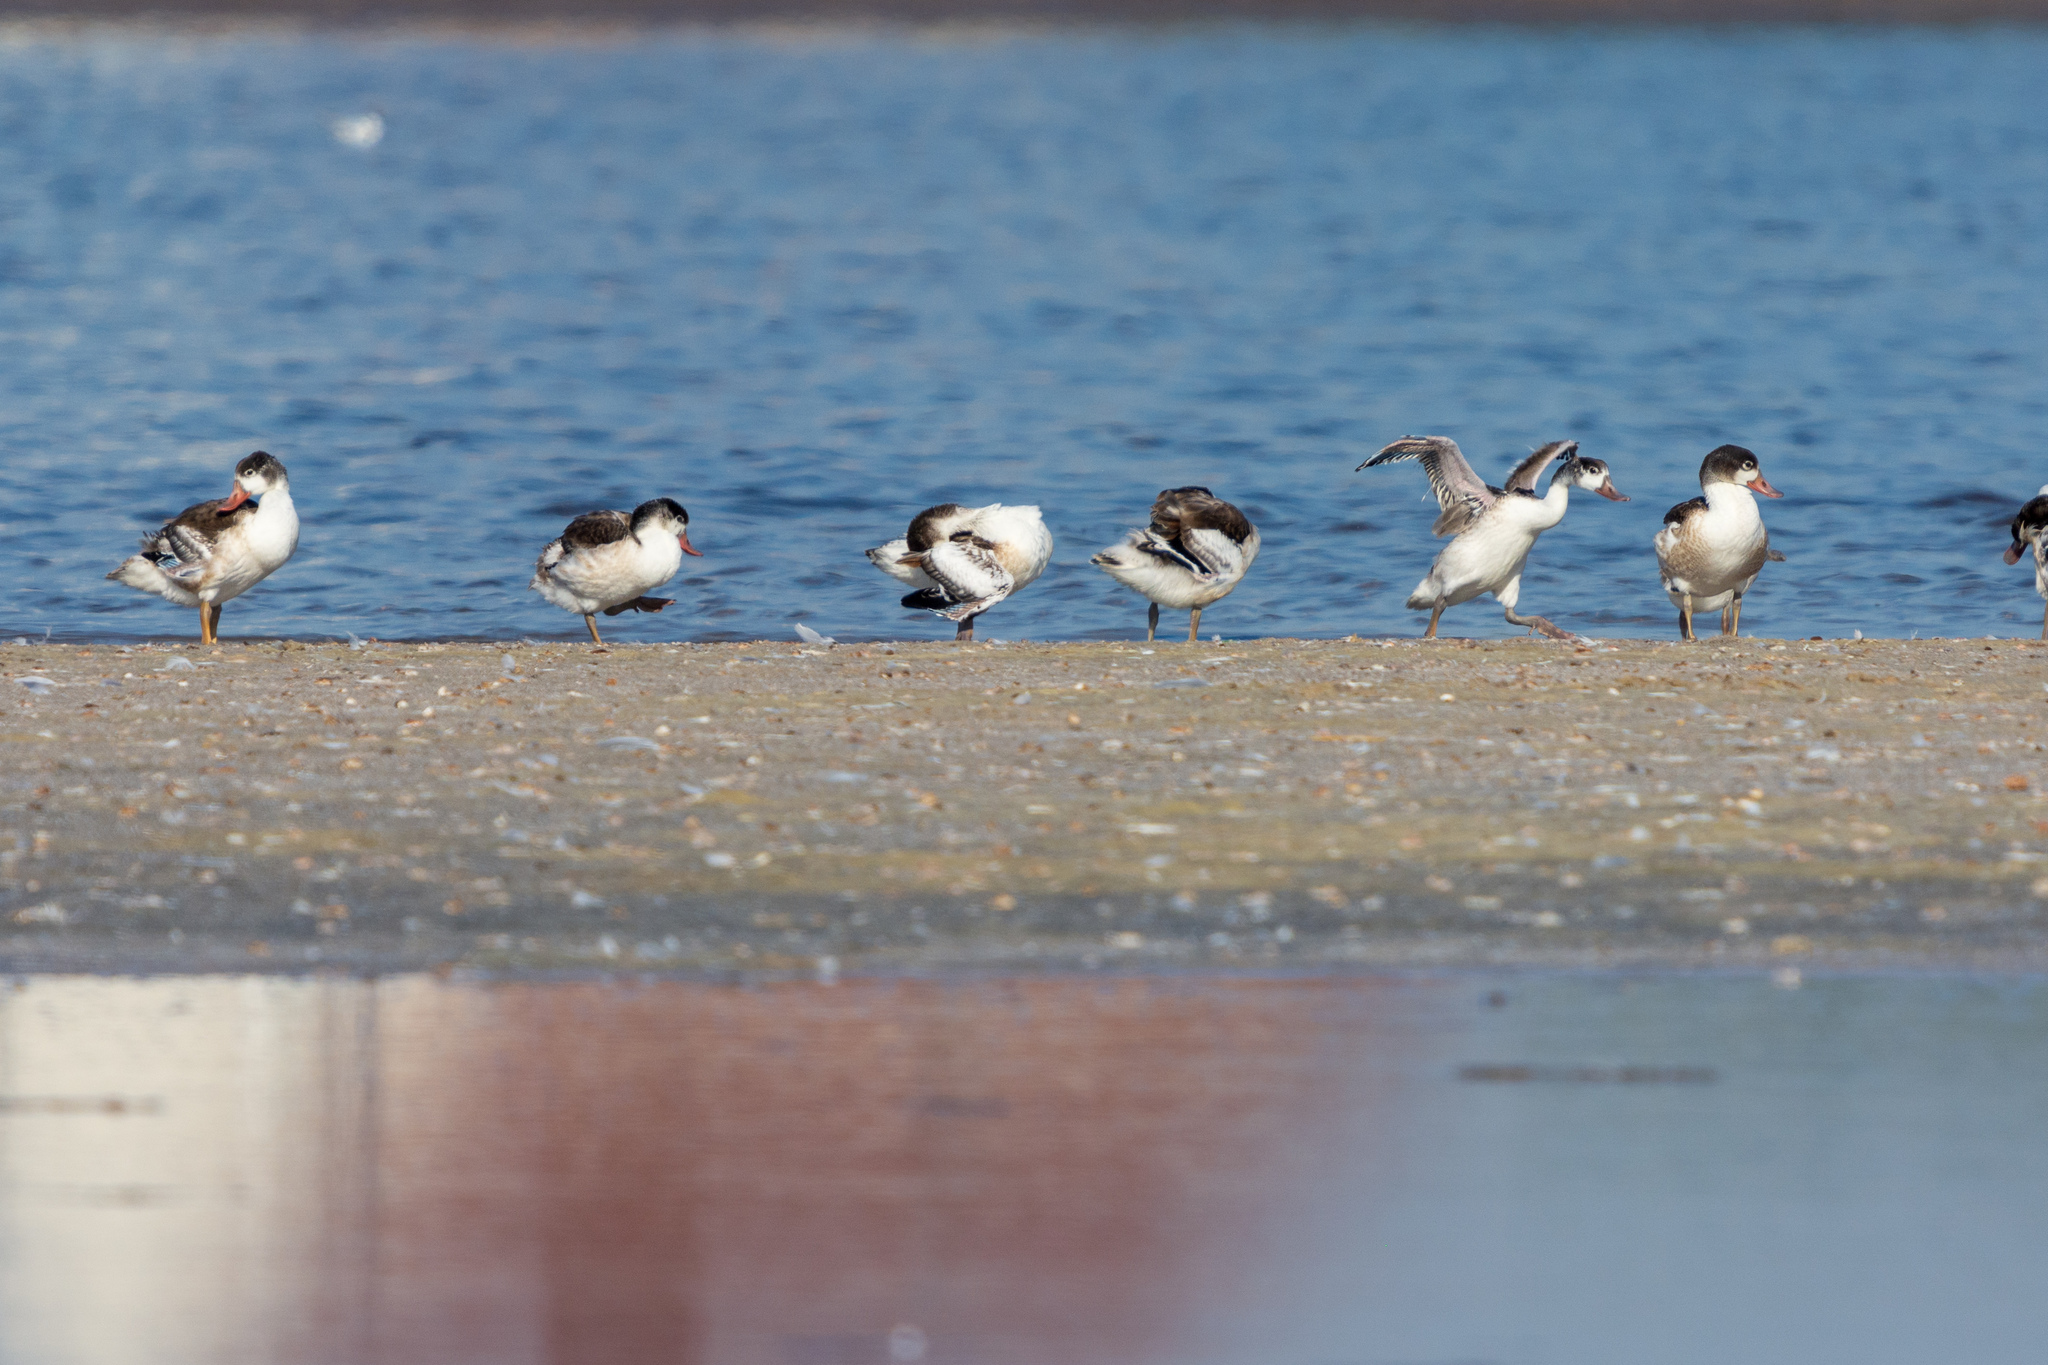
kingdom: Animalia
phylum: Chordata
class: Aves
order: Anseriformes
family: Anatidae
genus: Tadorna
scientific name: Tadorna tadorna
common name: Common shelduck
